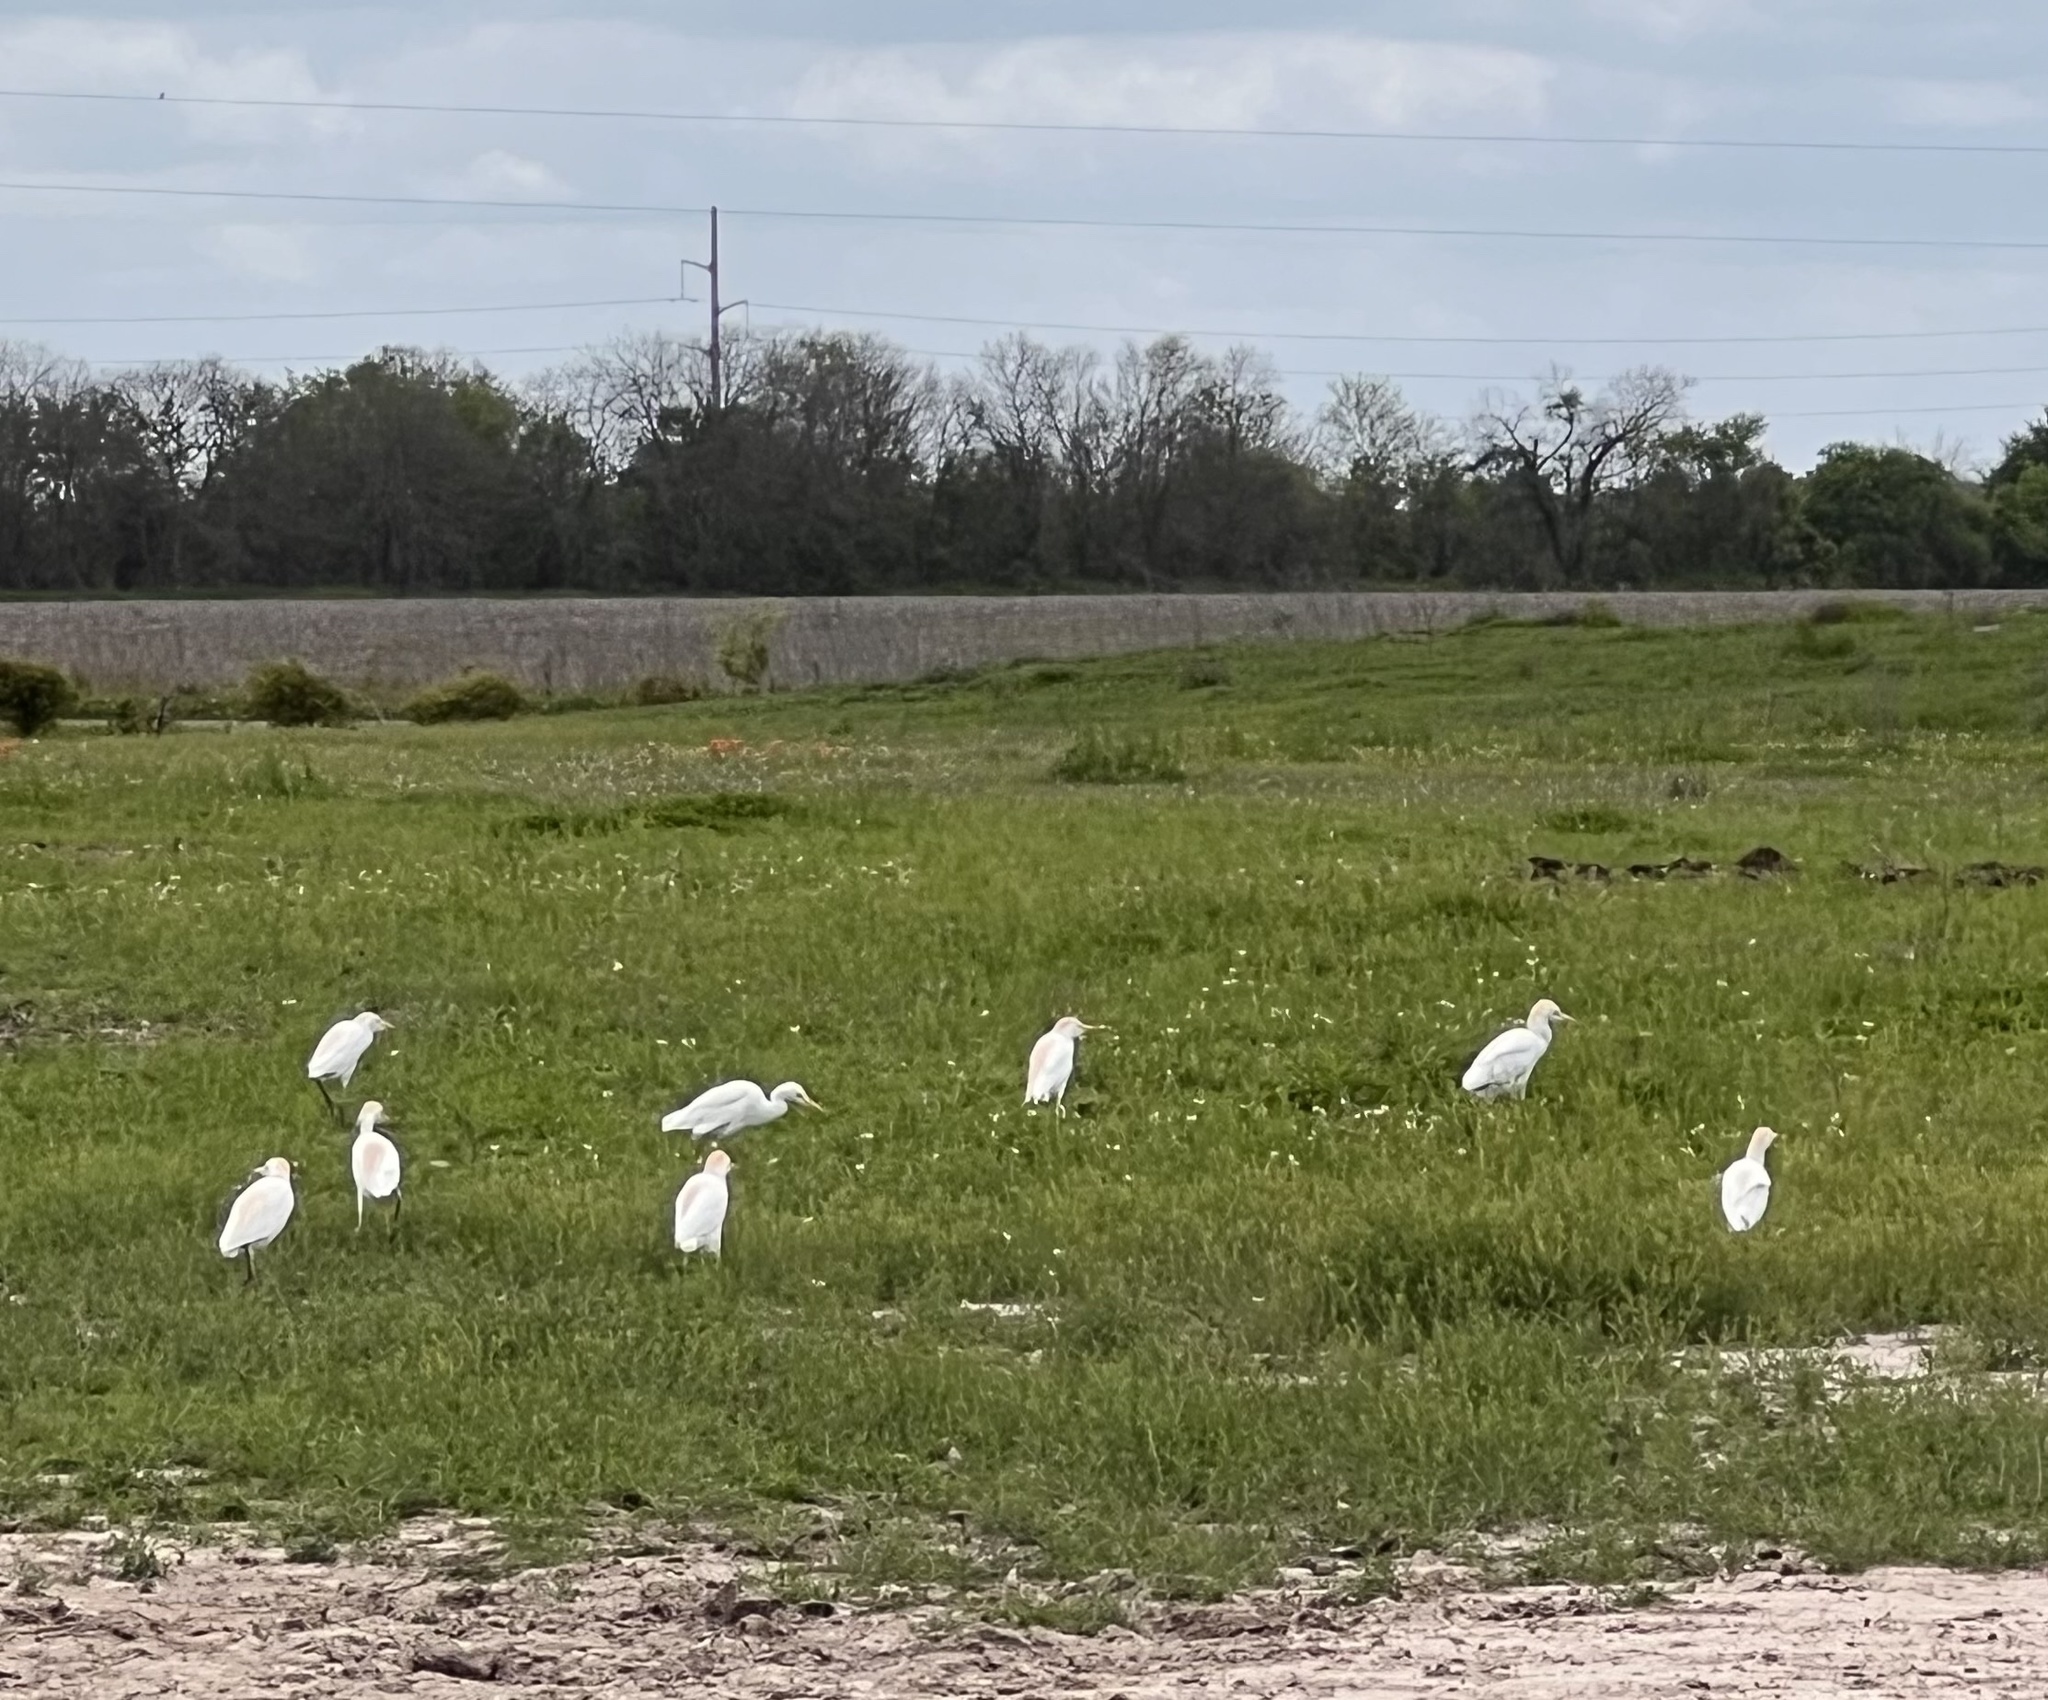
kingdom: Animalia
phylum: Chordata
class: Aves
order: Pelecaniformes
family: Ardeidae
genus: Bubulcus
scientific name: Bubulcus ibis
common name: Cattle egret
